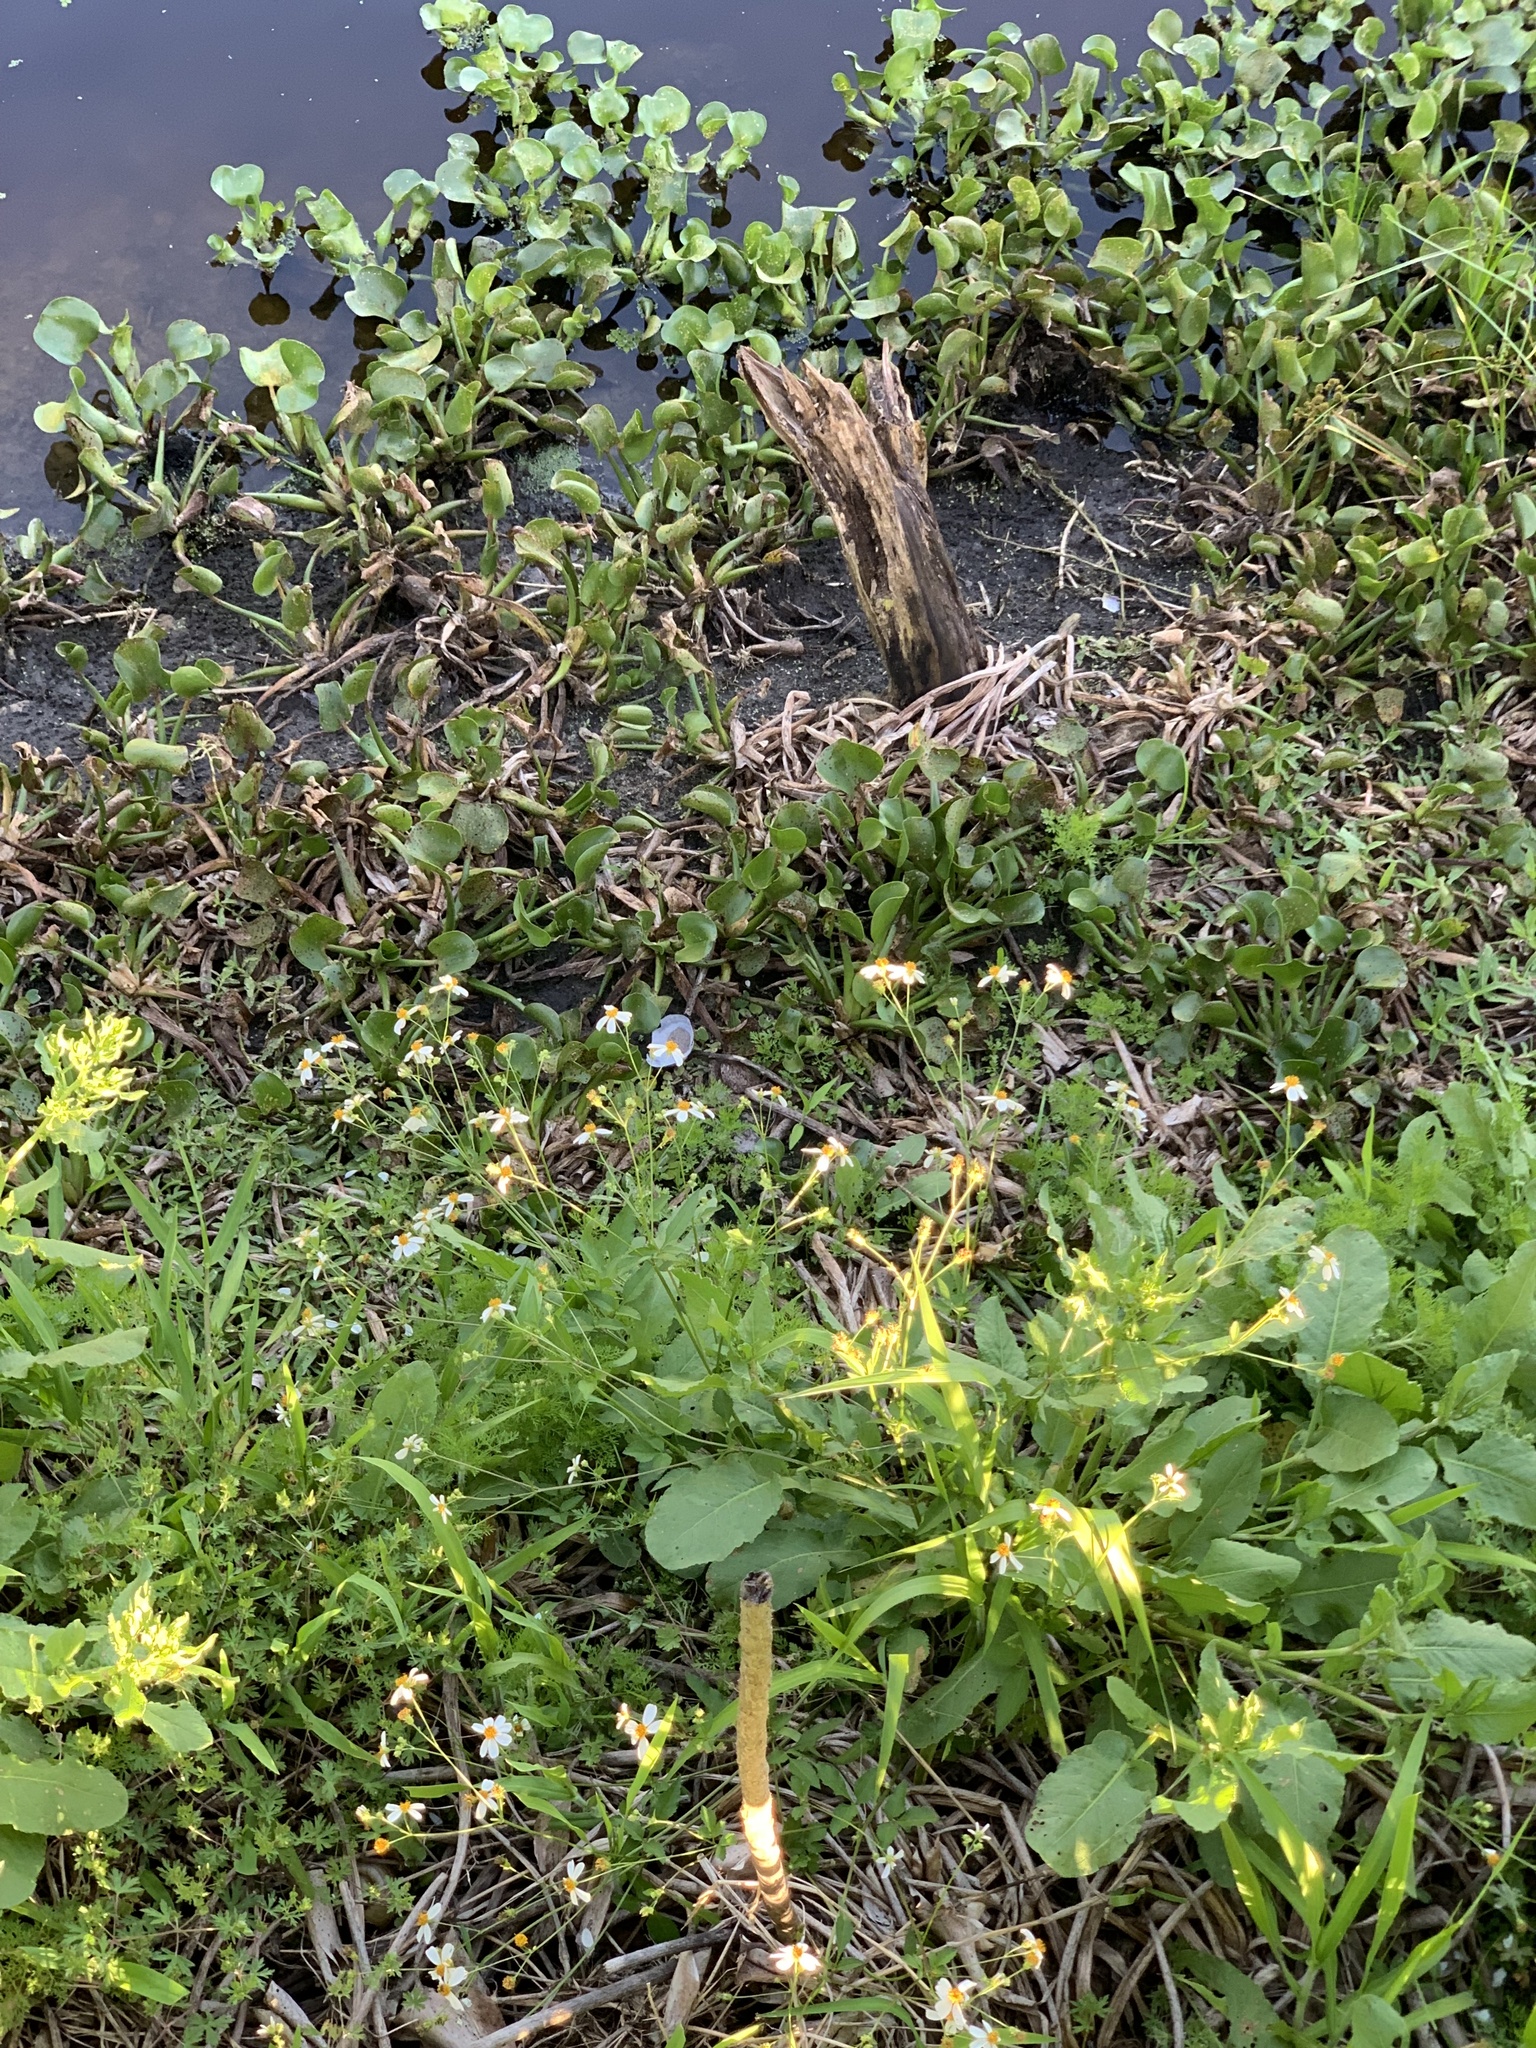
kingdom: Plantae
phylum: Tracheophyta
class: Magnoliopsida
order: Asterales
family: Asteraceae
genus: Bidens
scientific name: Bidens alba
